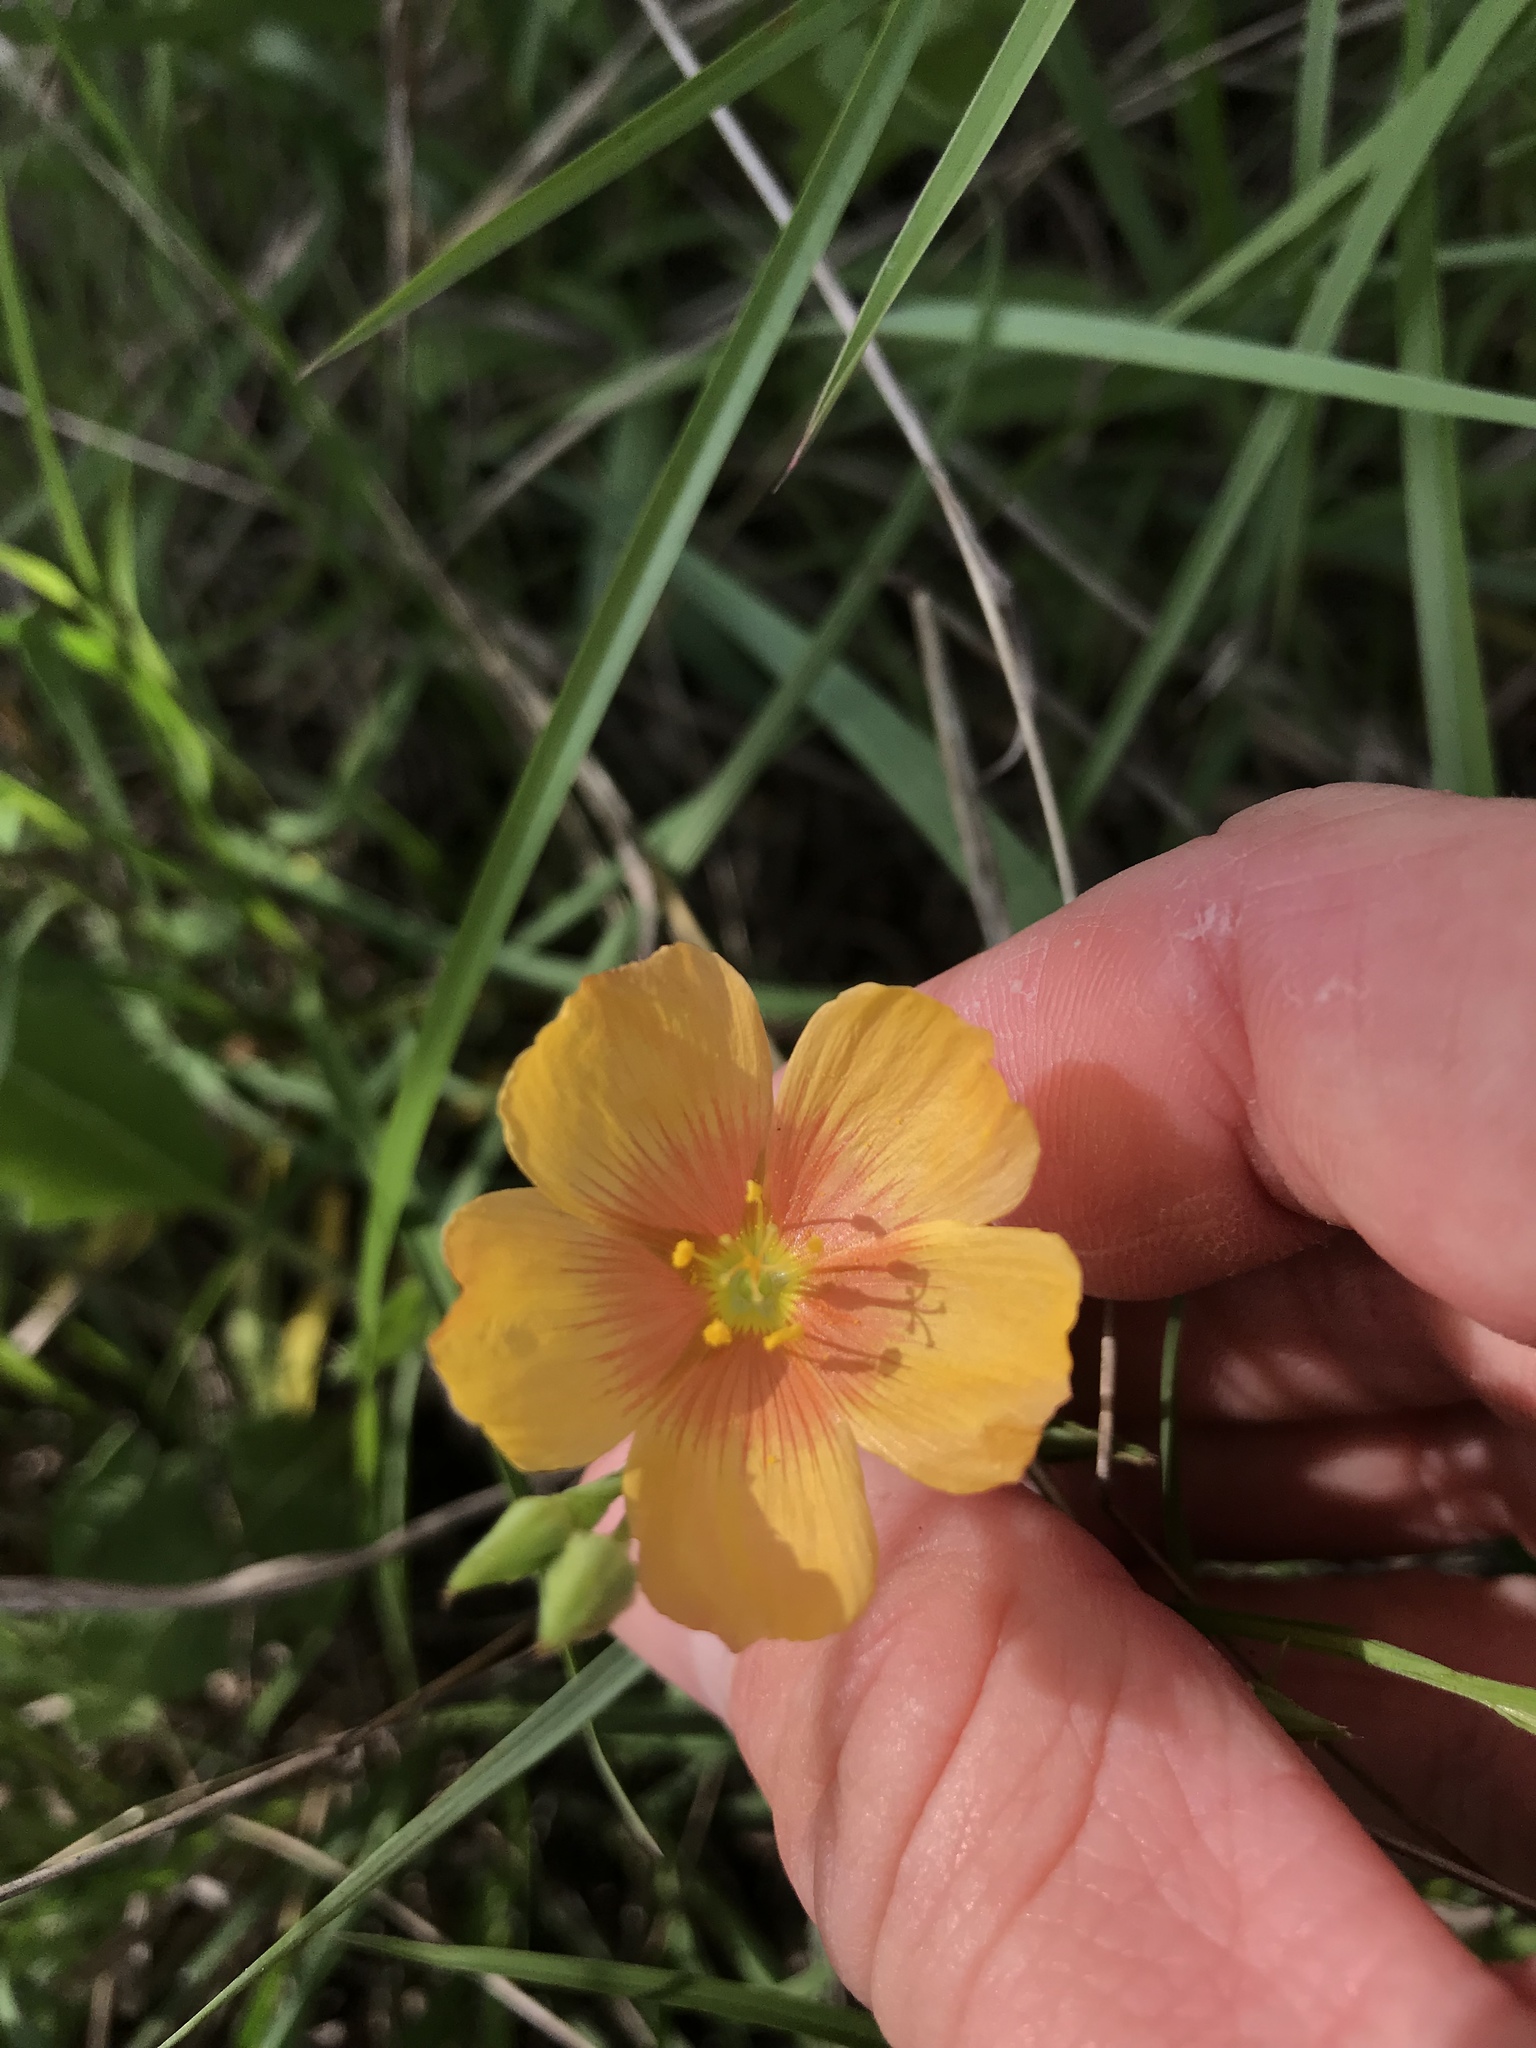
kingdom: Plantae
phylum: Tracheophyta
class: Magnoliopsida
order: Malpighiales
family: Linaceae
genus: Linum
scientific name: Linum berlandieri
